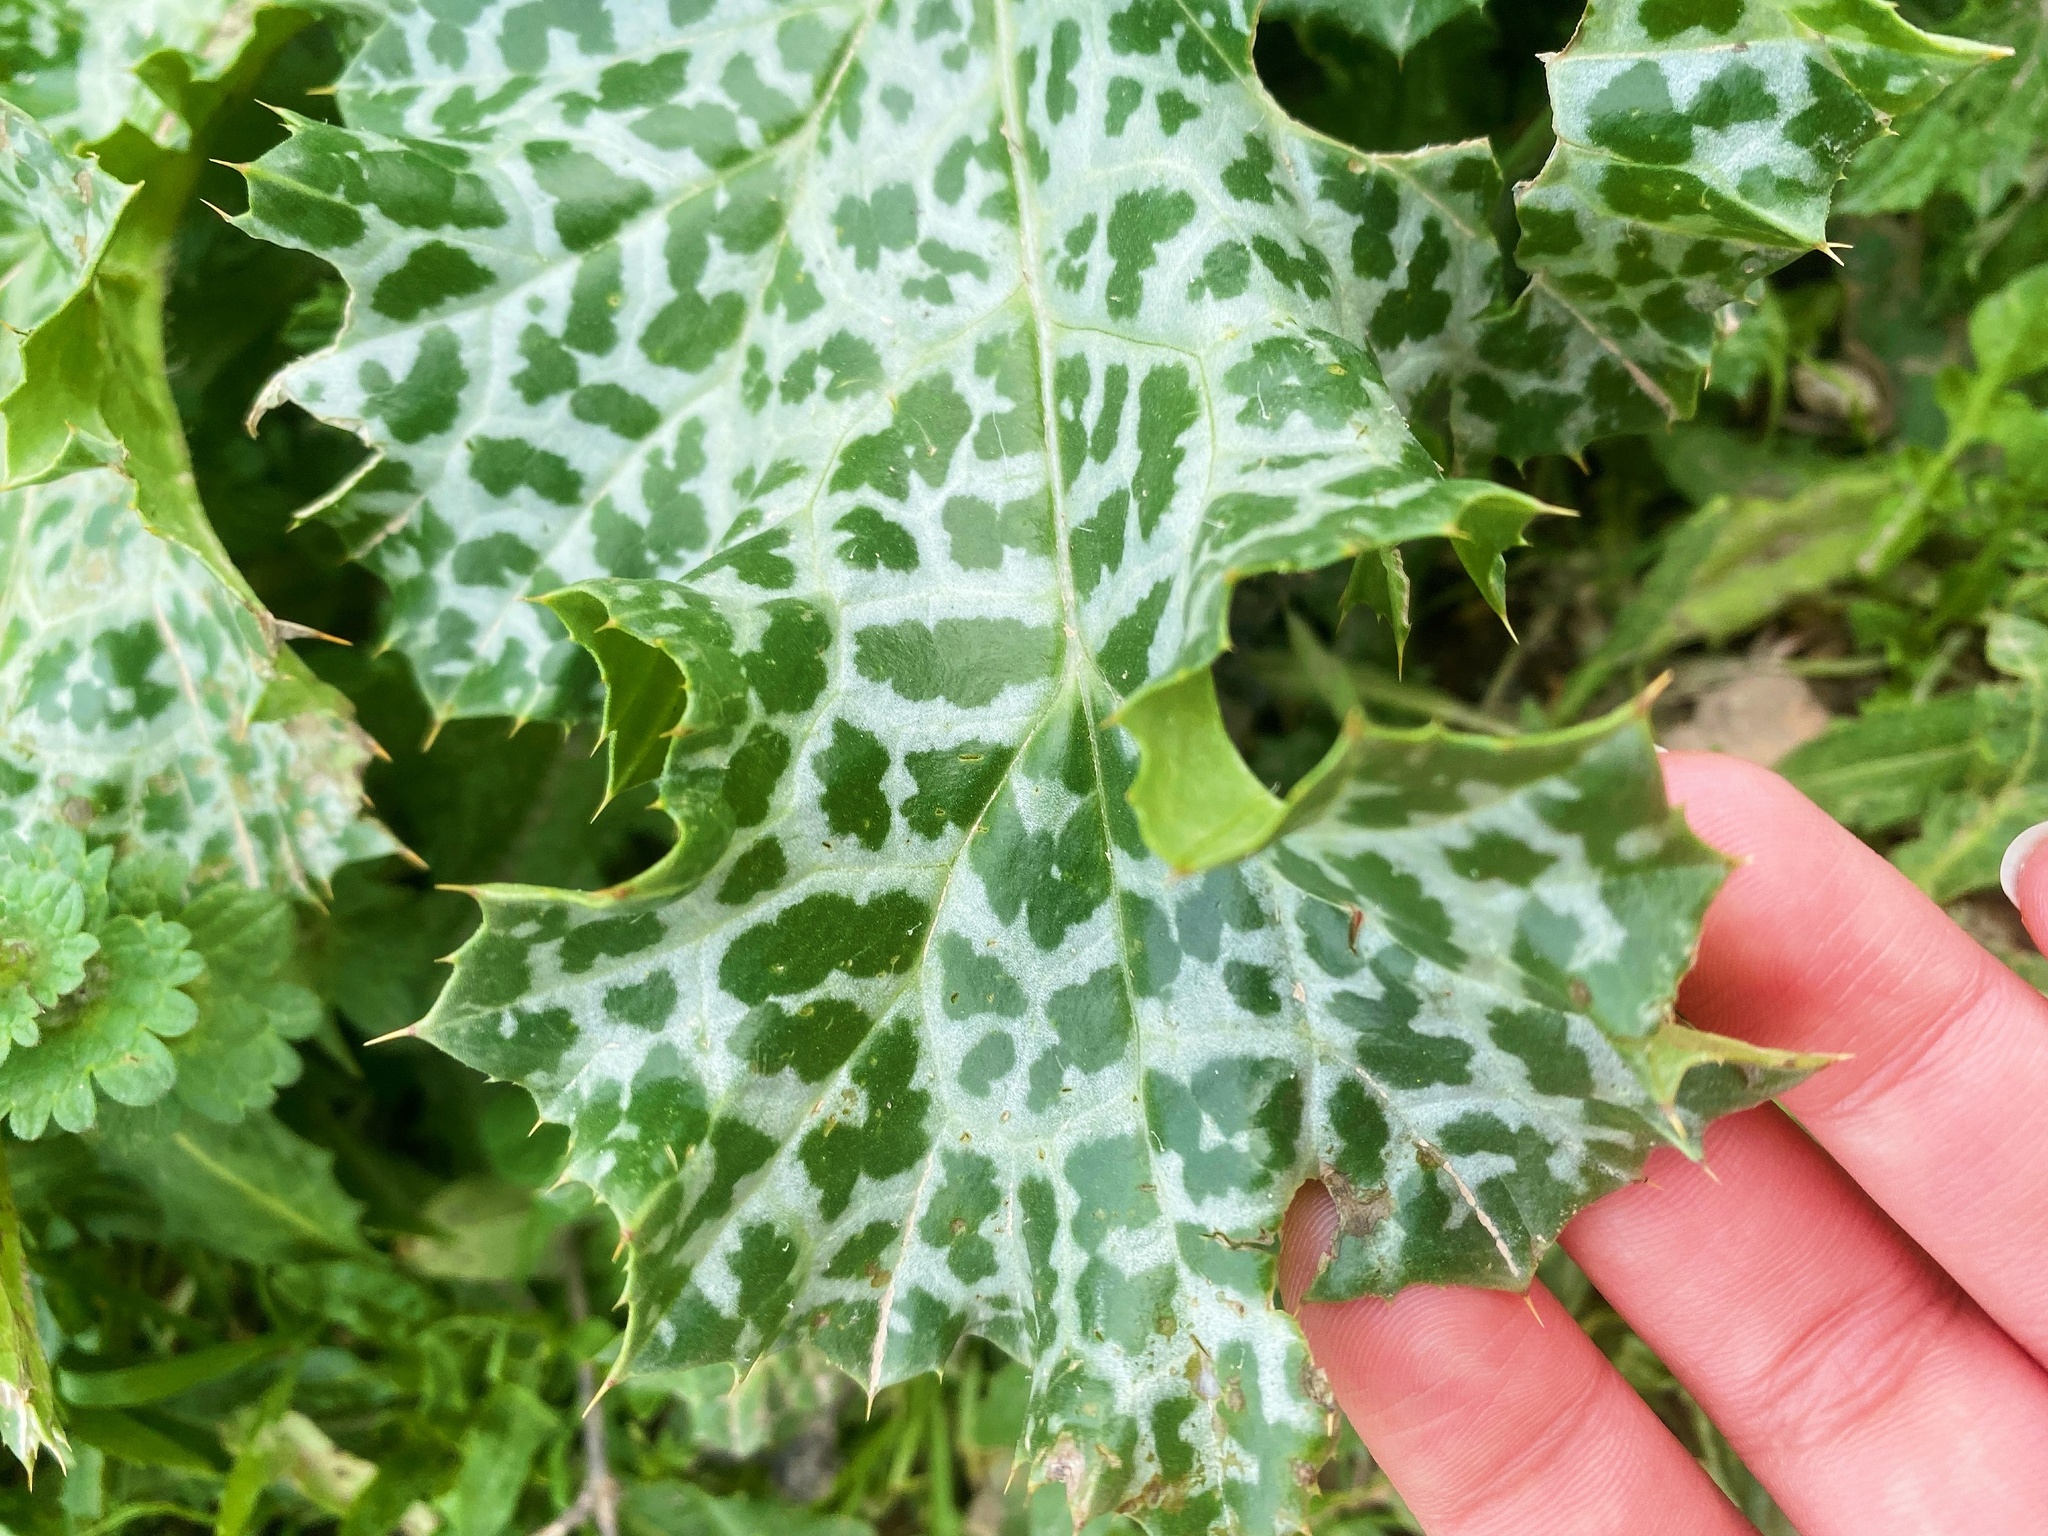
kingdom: Plantae
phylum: Tracheophyta
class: Magnoliopsida
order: Asterales
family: Asteraceae
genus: Silybum
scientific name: Silybum marianum
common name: Milk thistle
